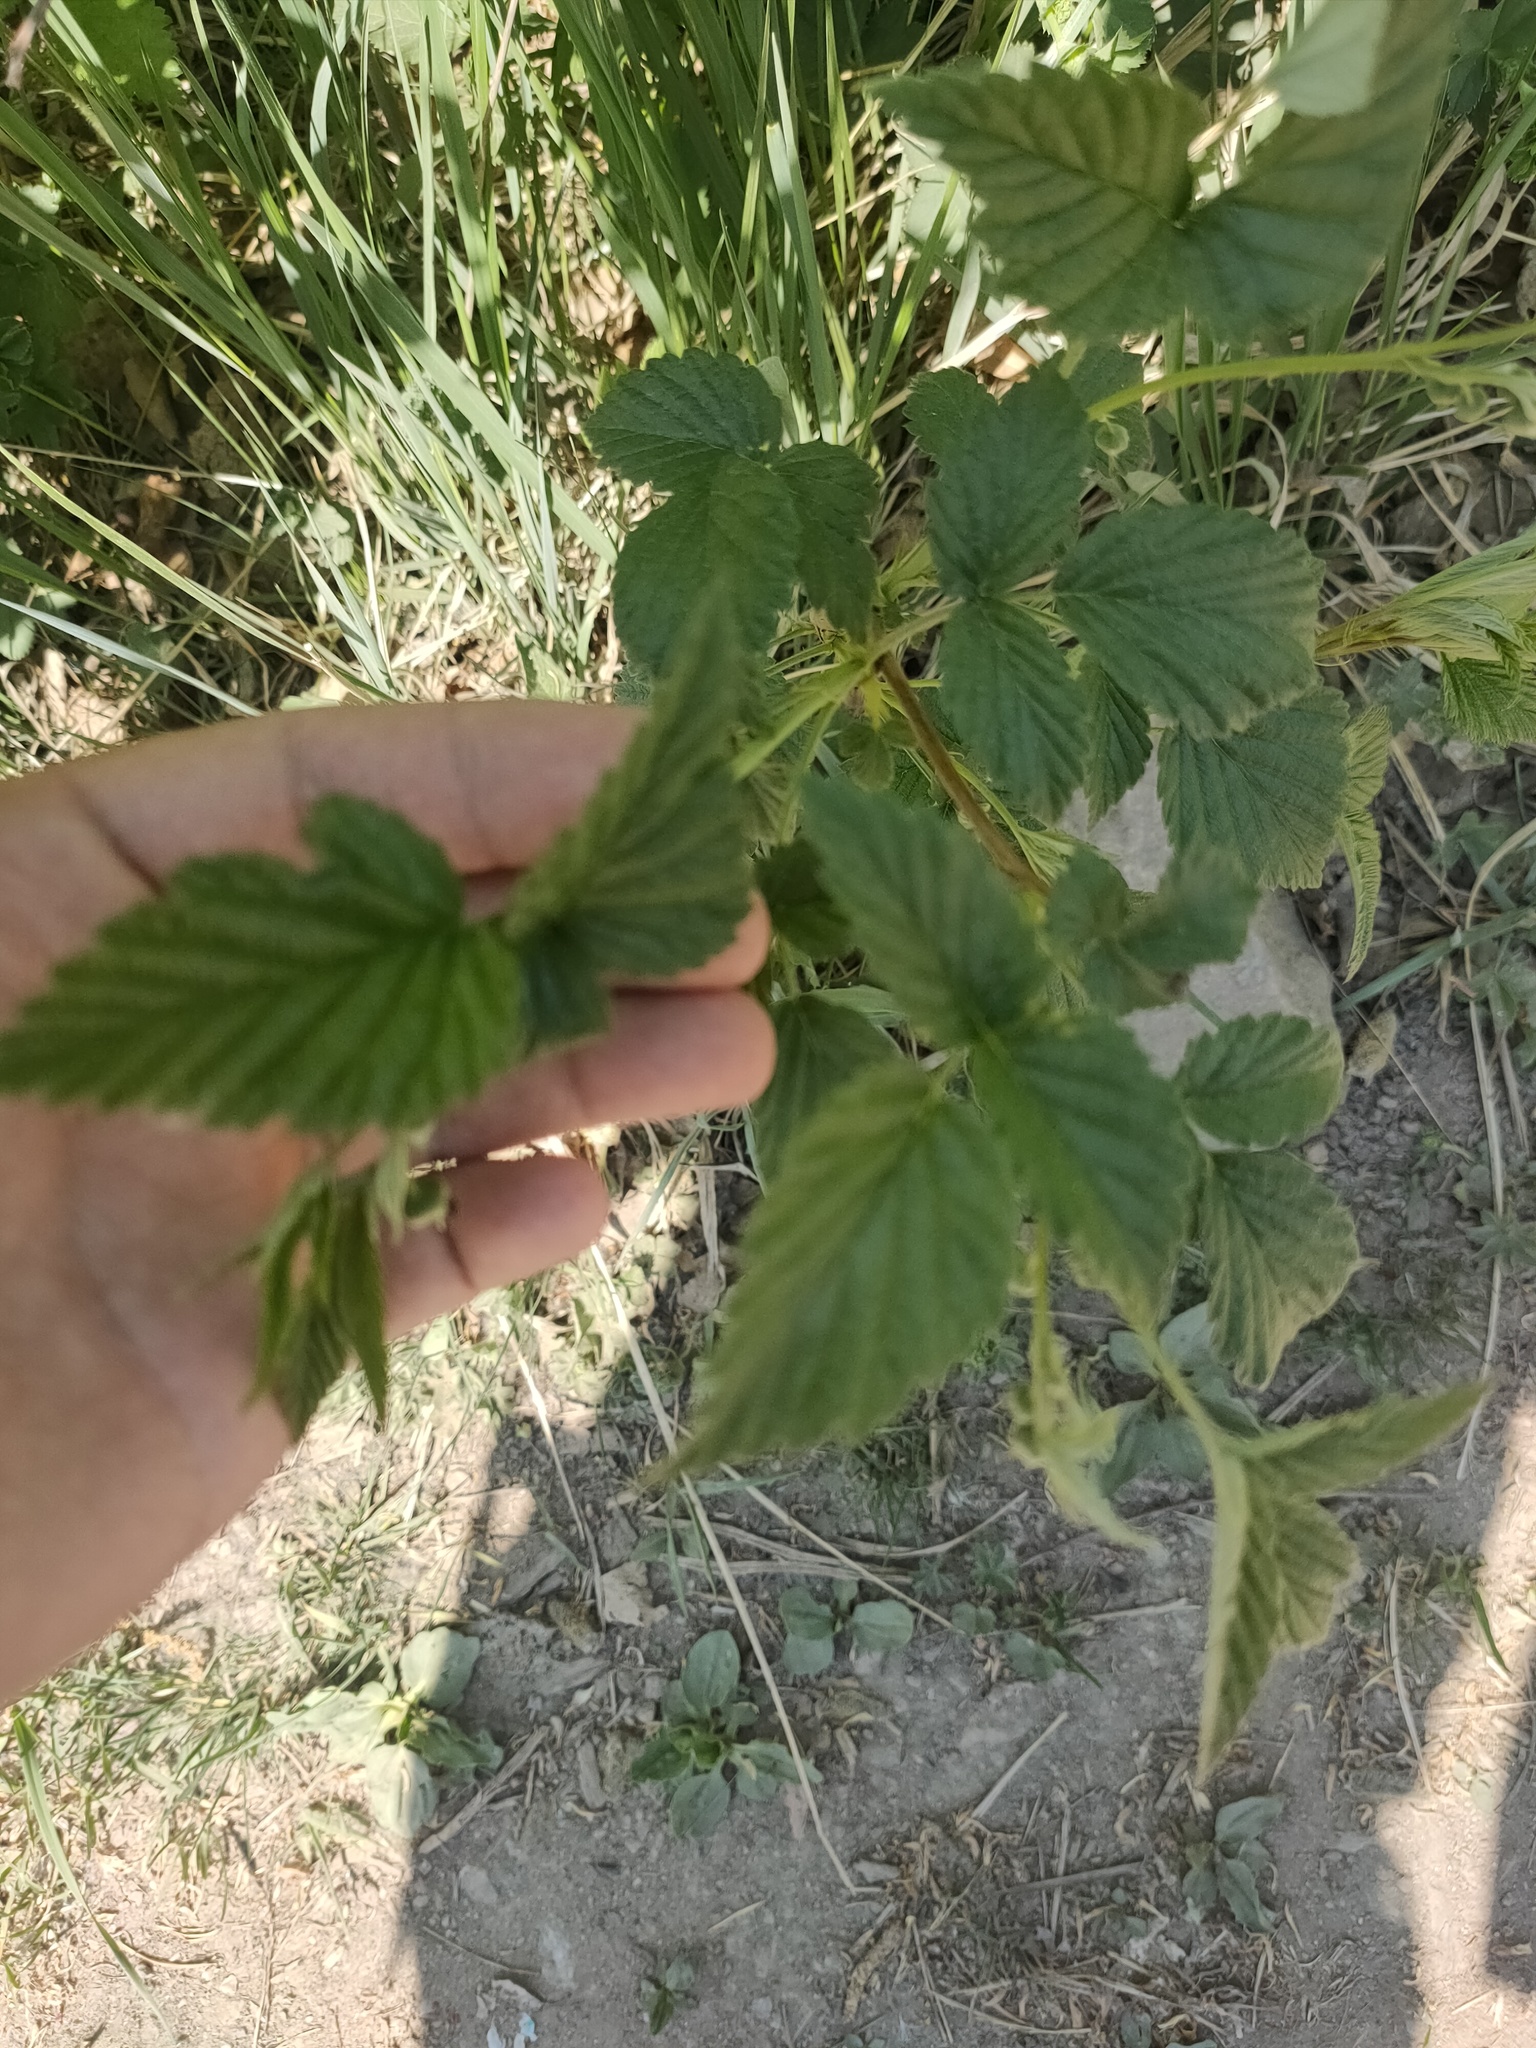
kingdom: Plantae
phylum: Tracheophyta
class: Magnoliopsida
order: Rosales
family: Rosaceae
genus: Rubus
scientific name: Rubus idaeus
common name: Raspberry
